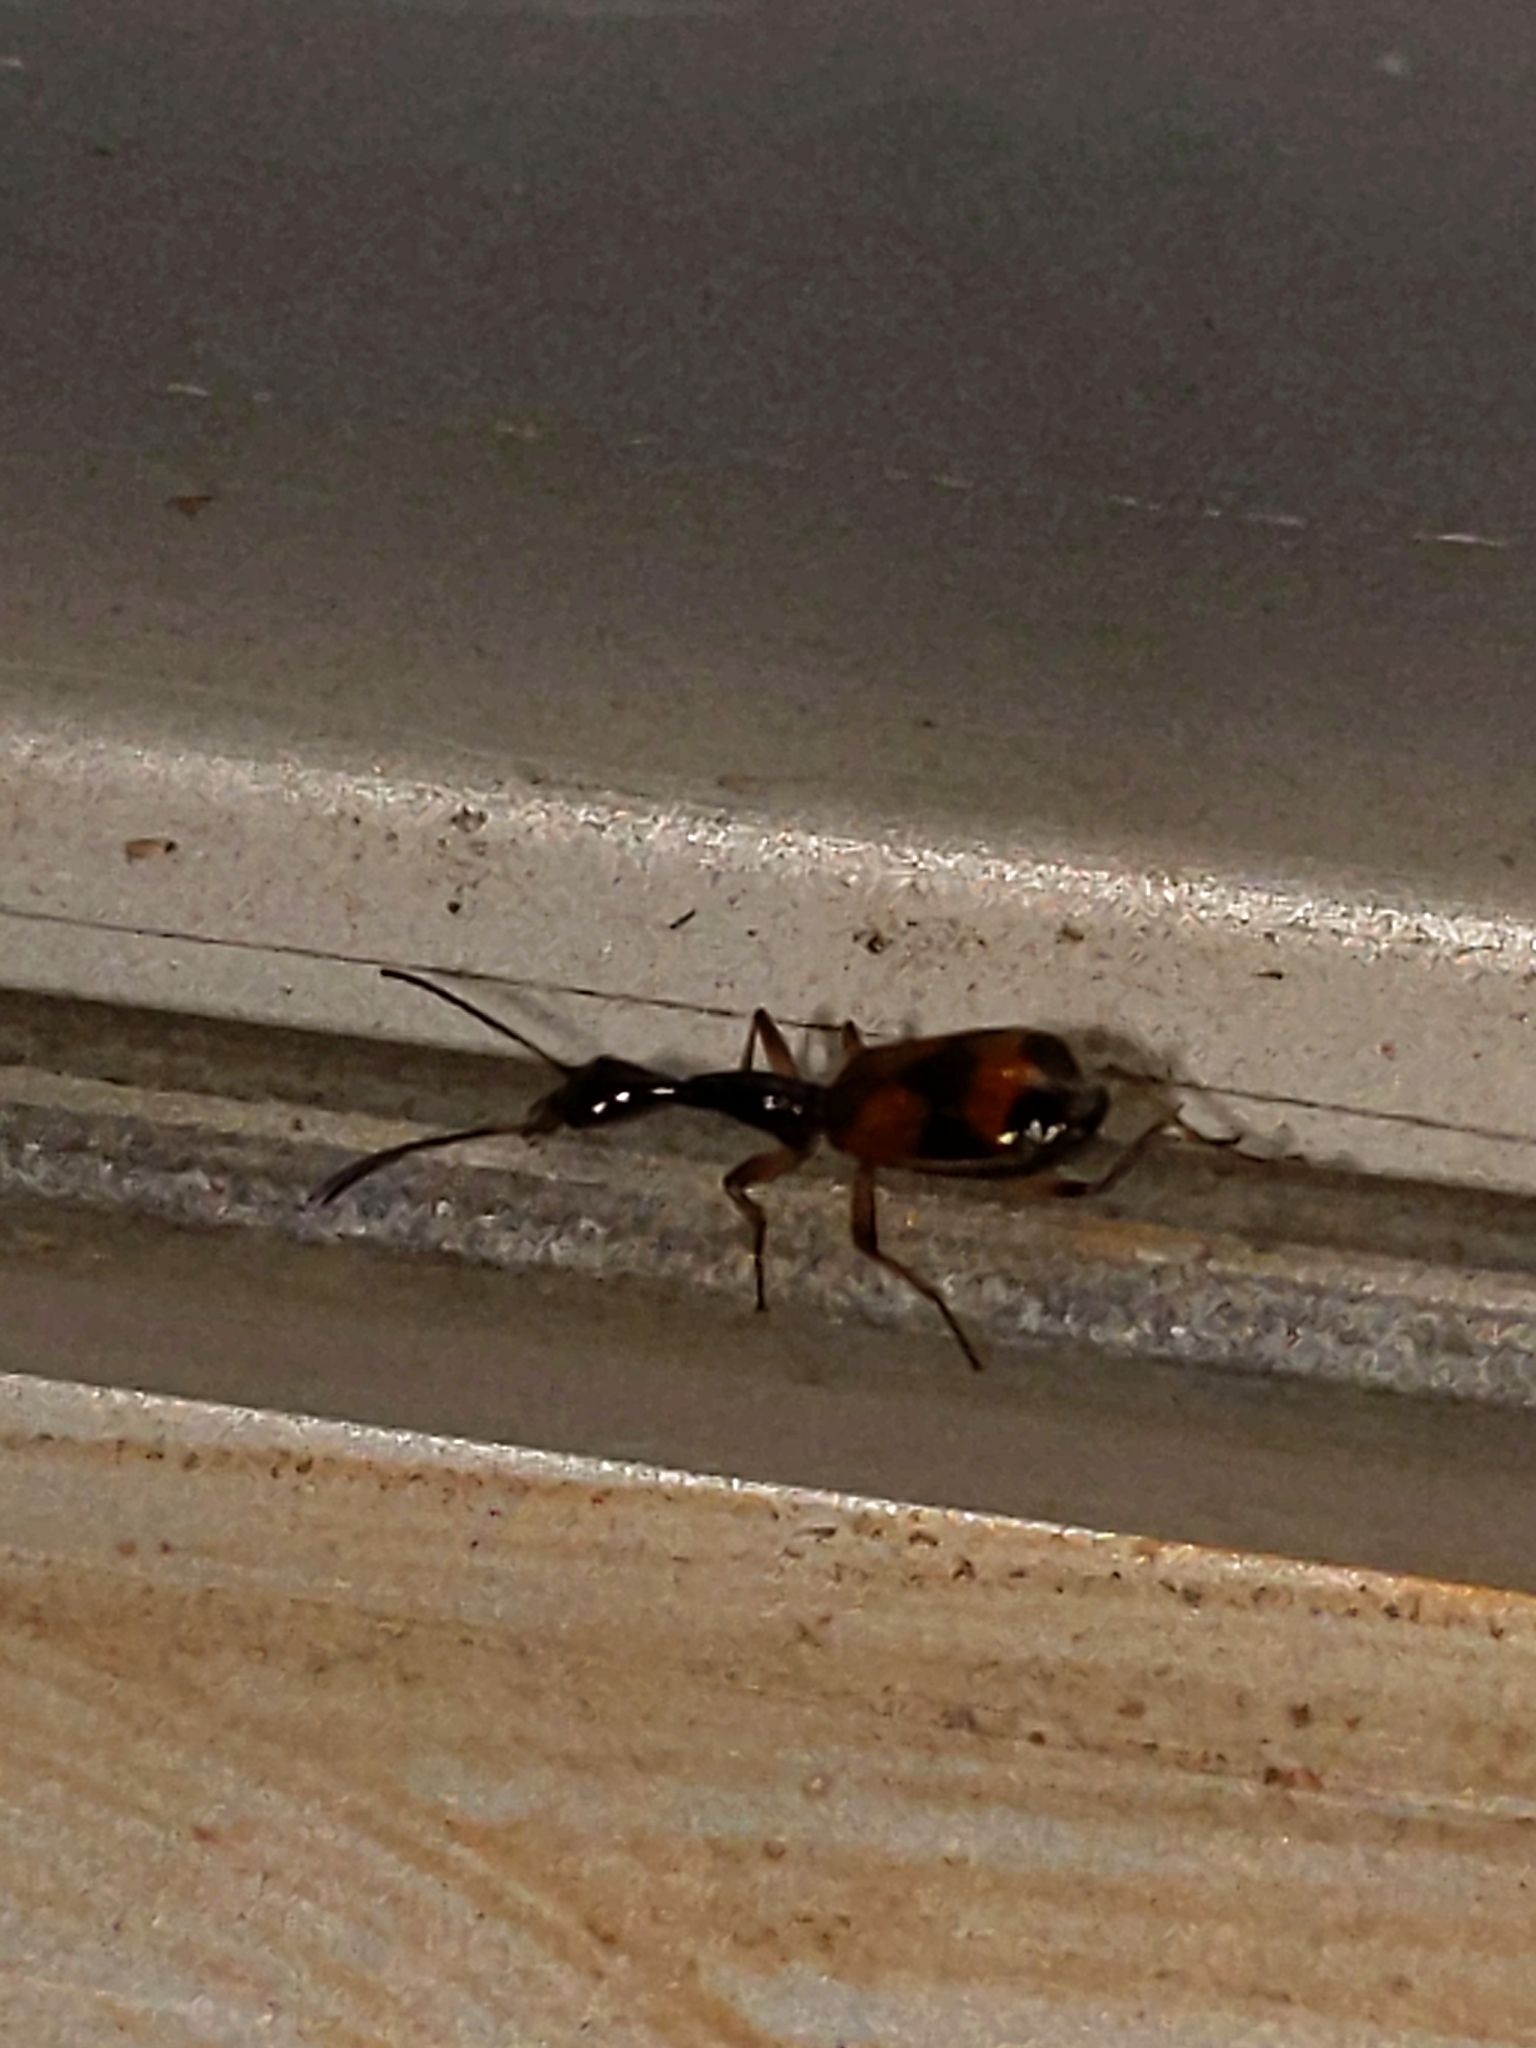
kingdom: Animalia
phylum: Arthropoda
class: Insecta
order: Coleoptera
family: Carabidae
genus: Colliuris
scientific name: Colliuris pensylvanica
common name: Long-necked ground beetle
